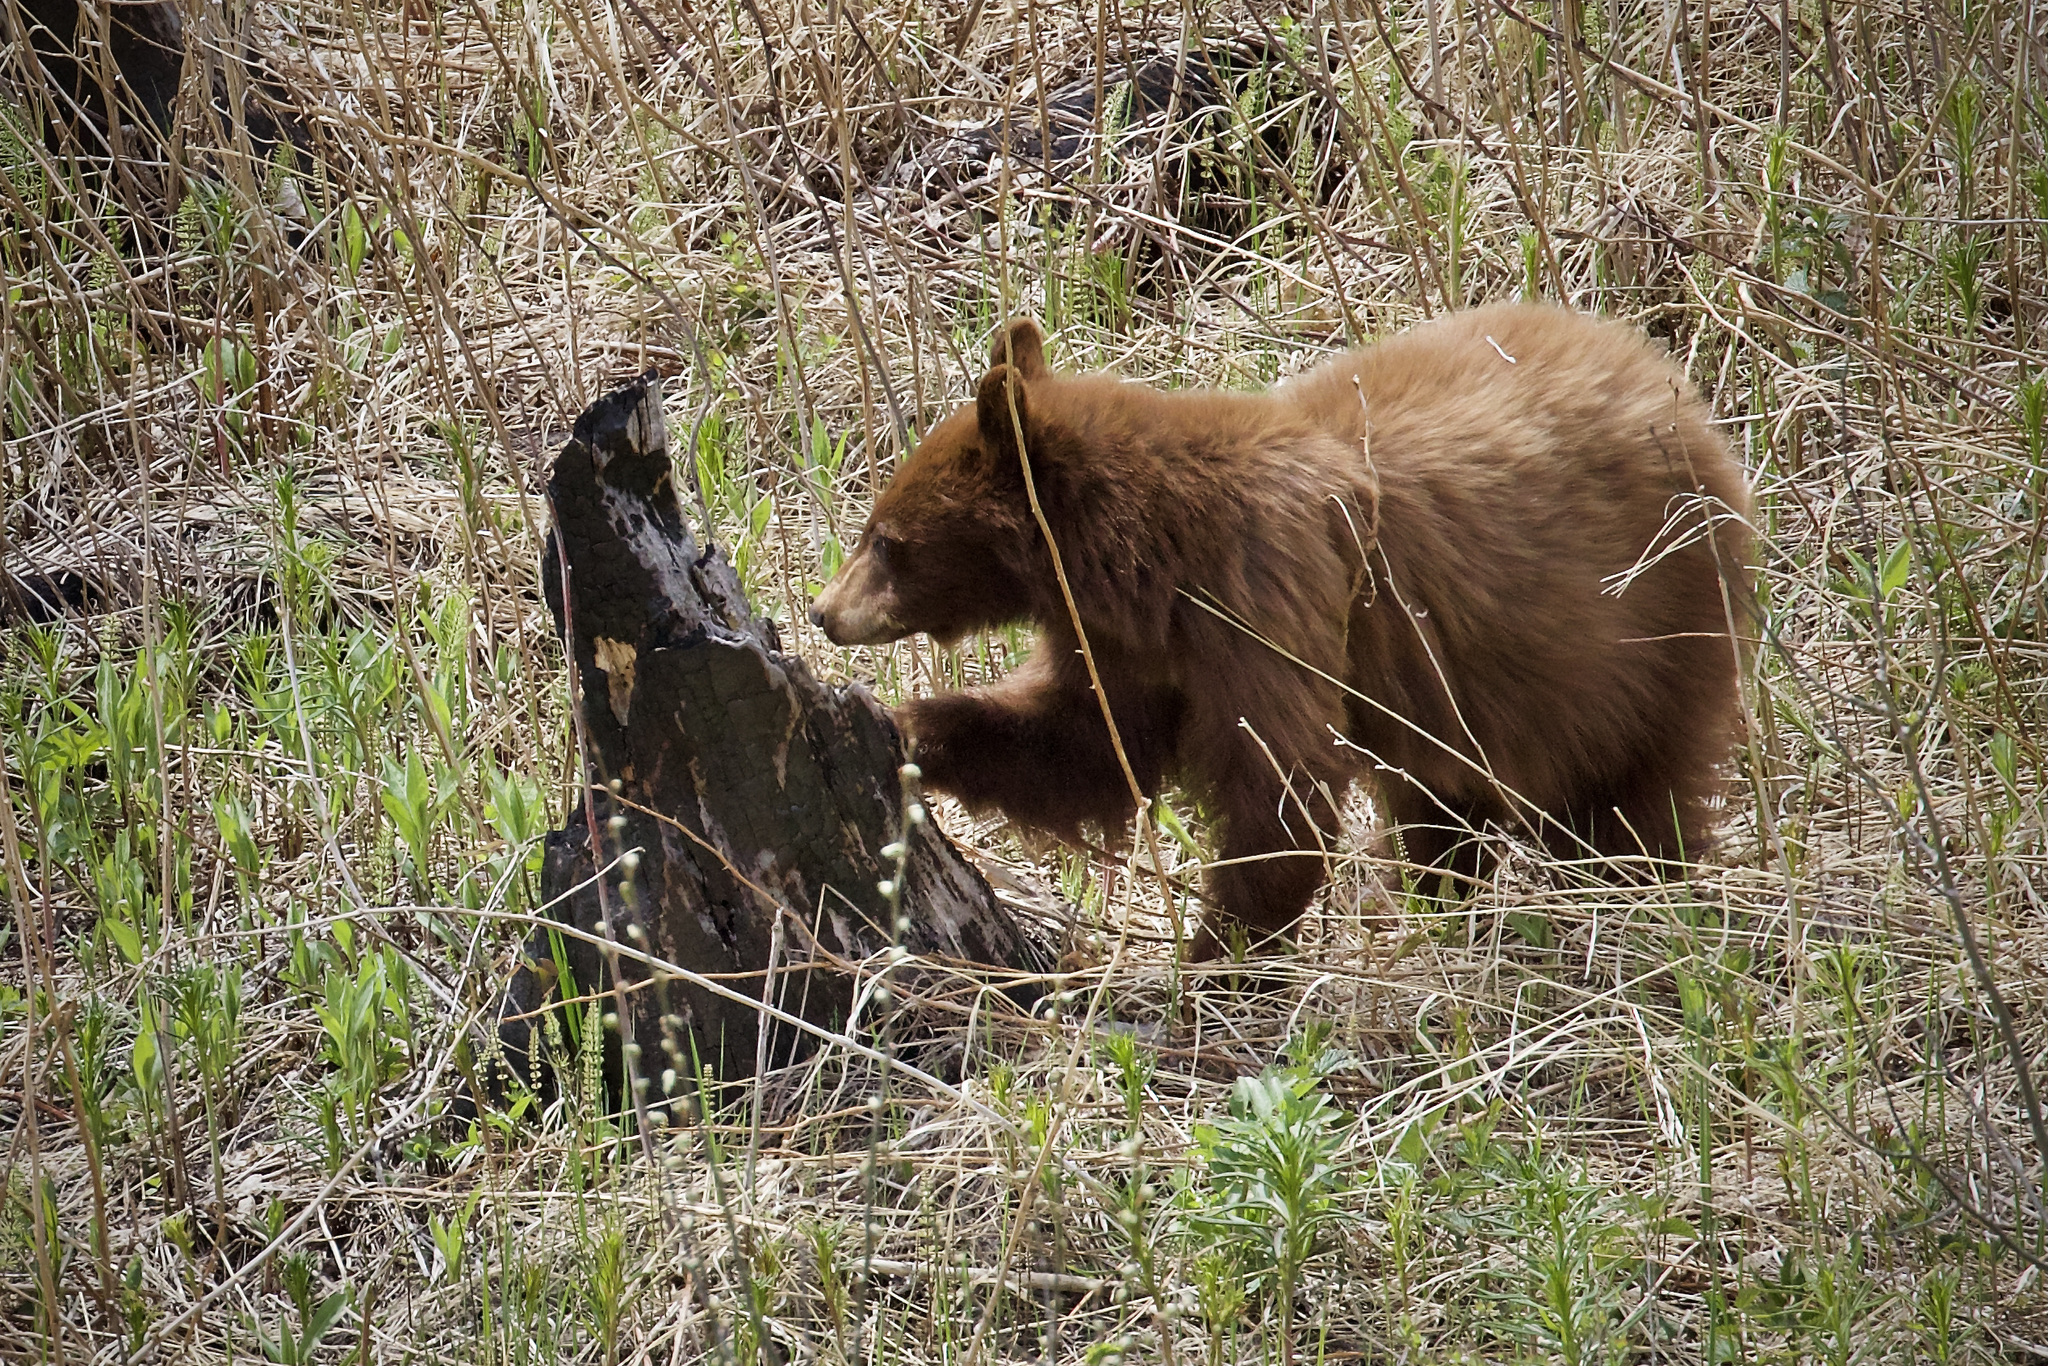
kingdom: Animalia
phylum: Chordata
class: Mammalia
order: Carnivora
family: Ursidae
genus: Ursus
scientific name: Ursus americanus
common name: American black bear
